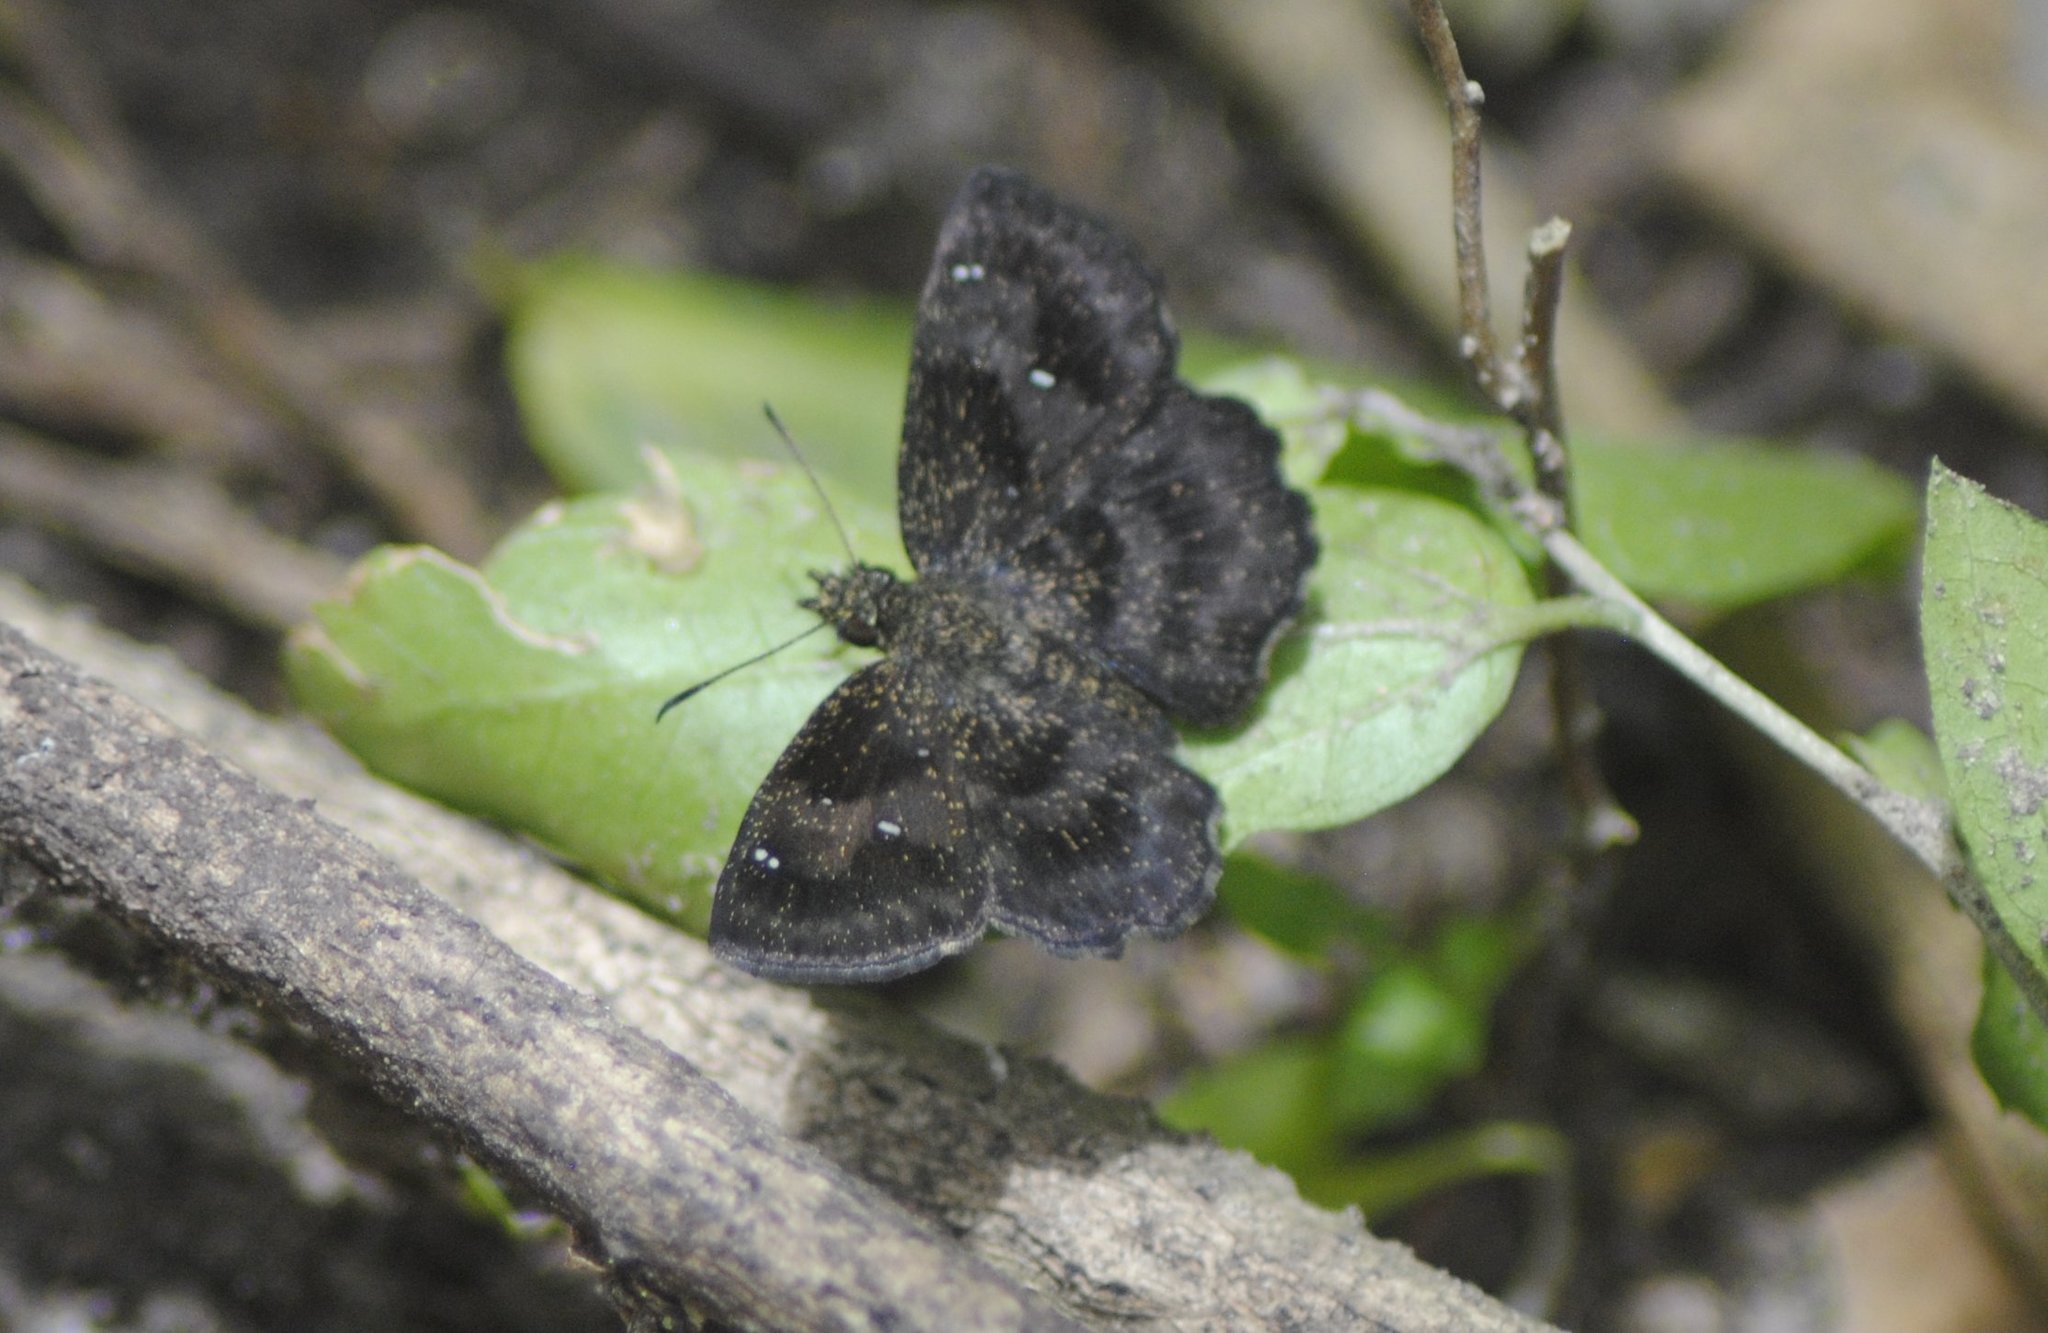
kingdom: Animalia
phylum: Arthropoda
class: Insecta
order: Lepidoptera
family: Hesperiidae
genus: Staphylus
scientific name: Staphylus mazans
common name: Mazans scallopwing
